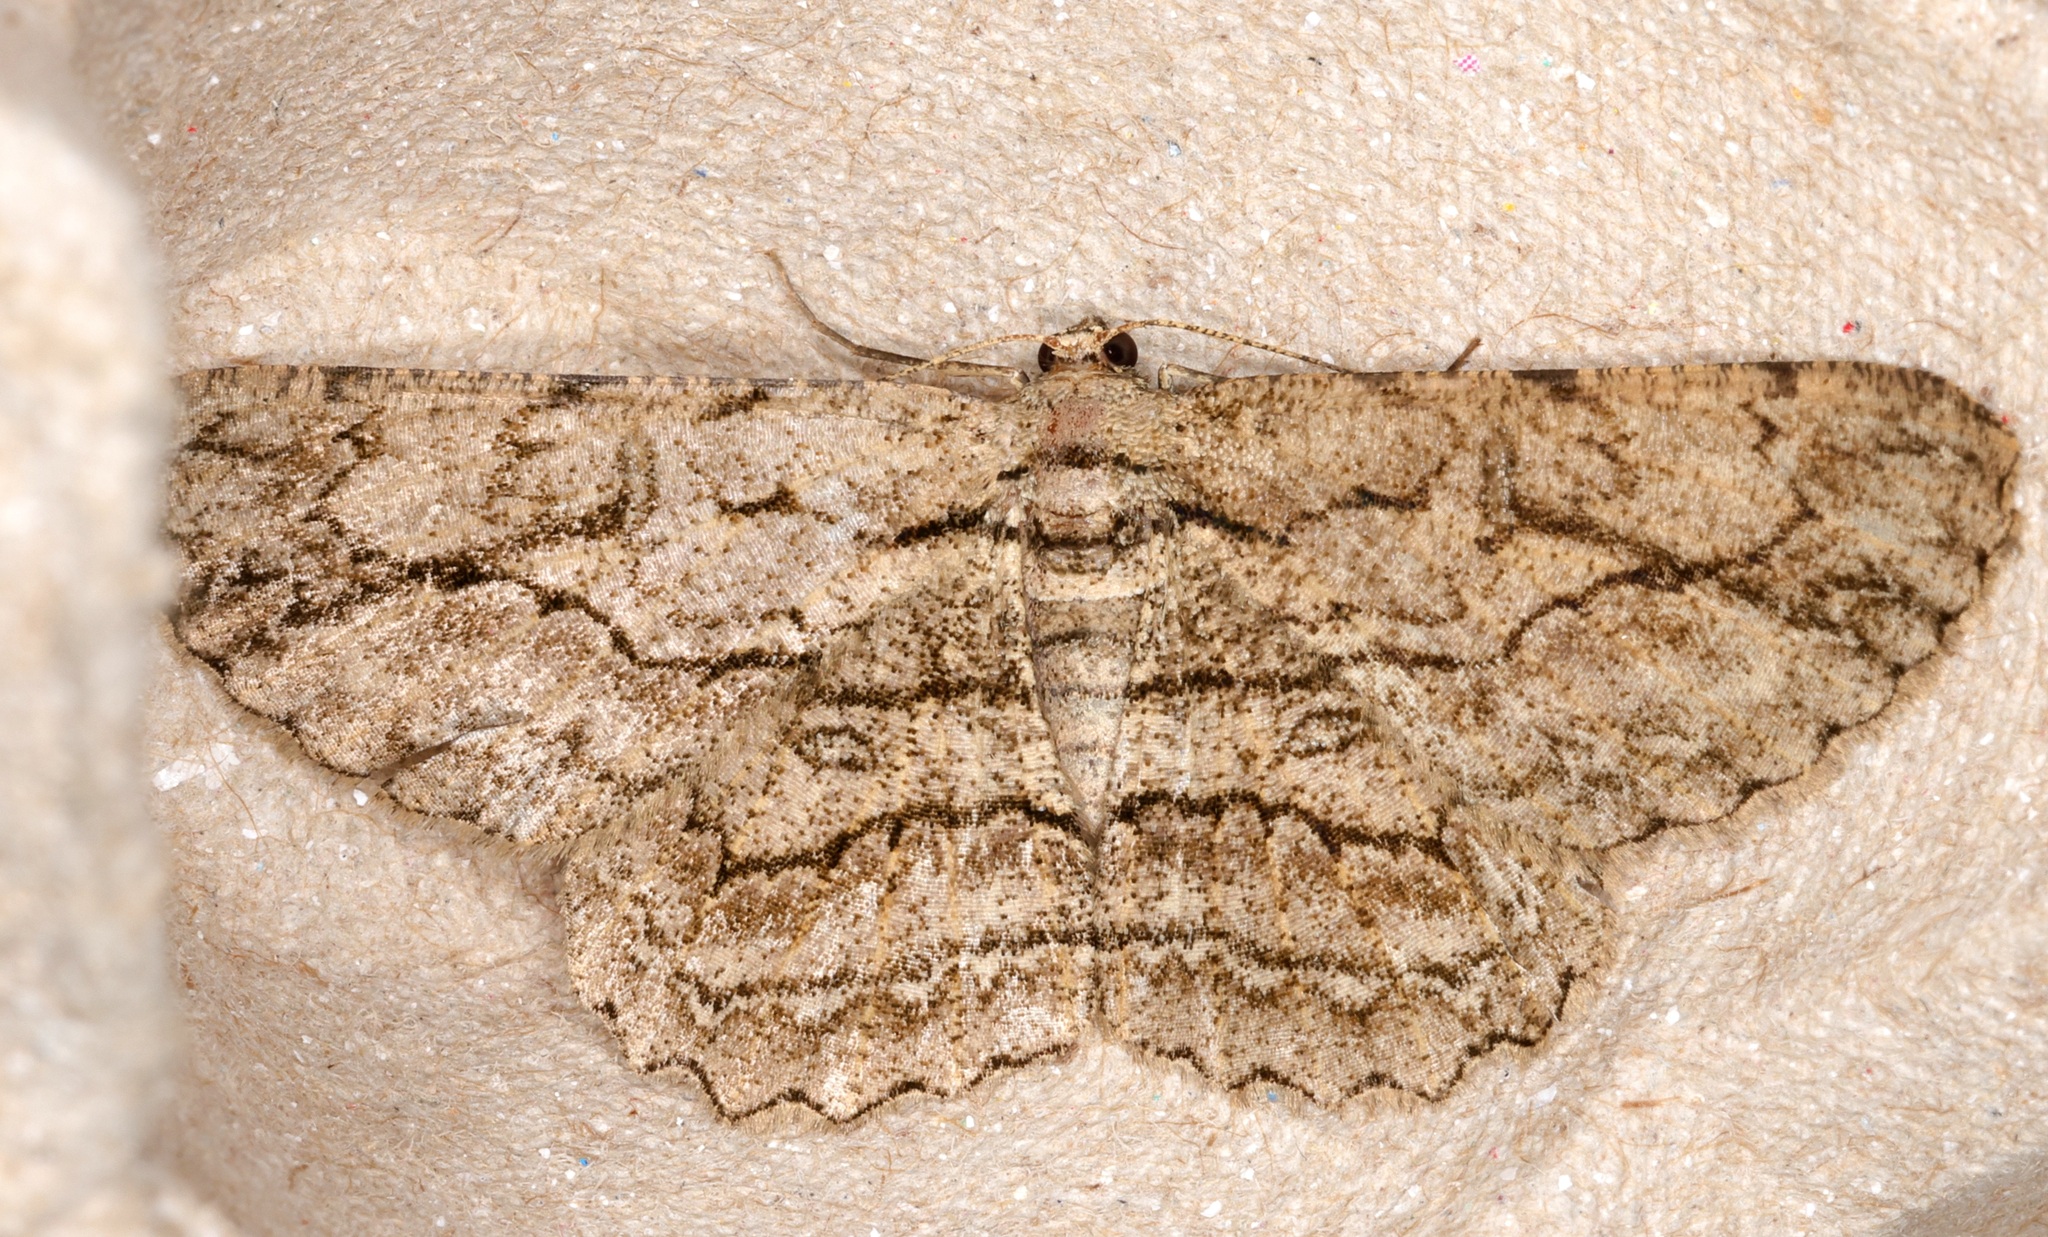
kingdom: Animalia
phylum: Arthropoda
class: Insecta
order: Lepidoptera
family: Geometridae
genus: Hypomecis
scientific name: Hypomecis transcissa
